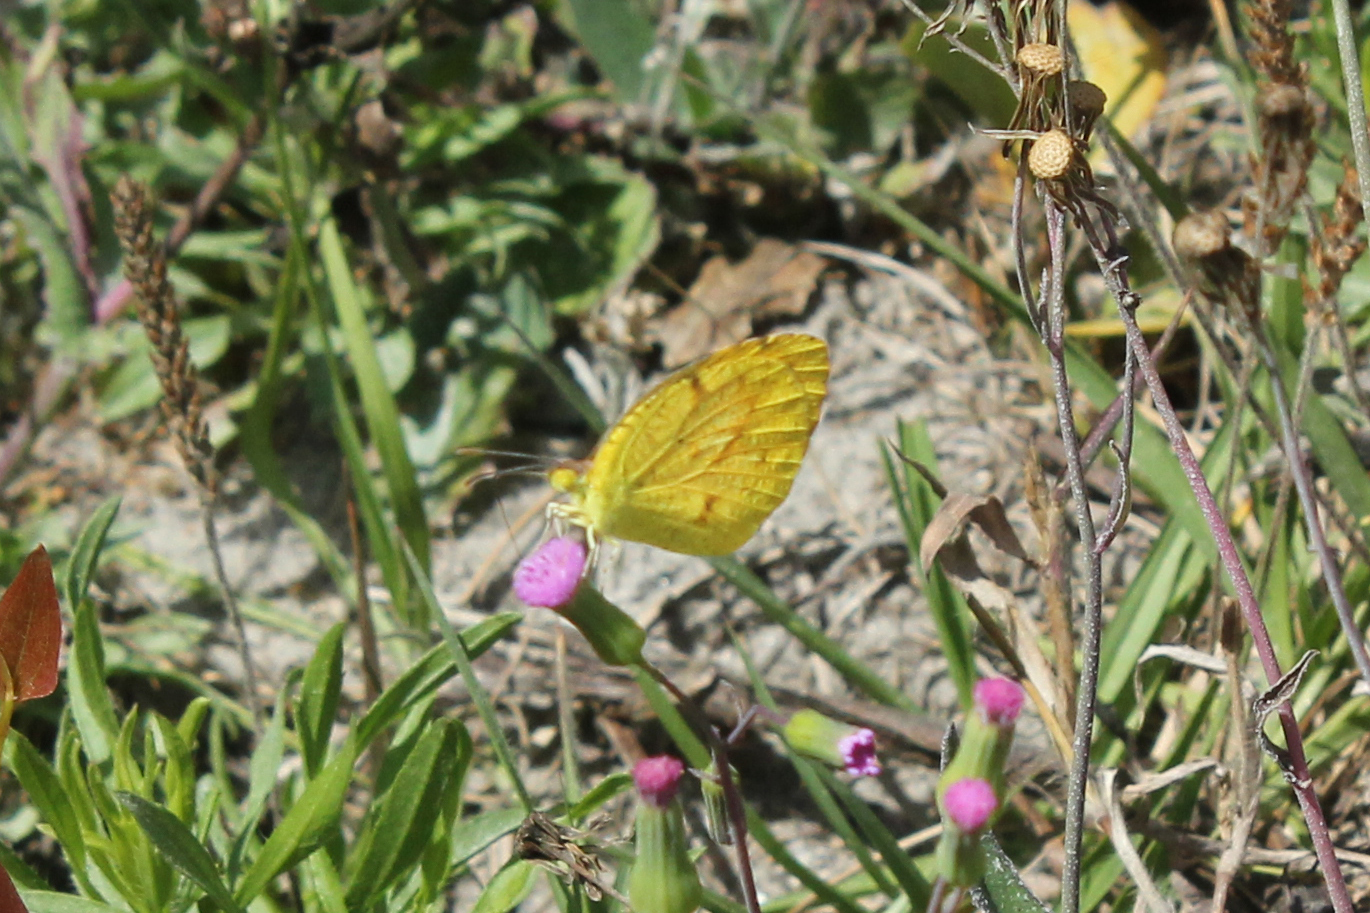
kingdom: Animalia
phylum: Arthropoda
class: Insecta
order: Lepidoptera
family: Pieridae
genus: Abaeis
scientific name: Abaeis nicippe
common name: Sleepy orange
